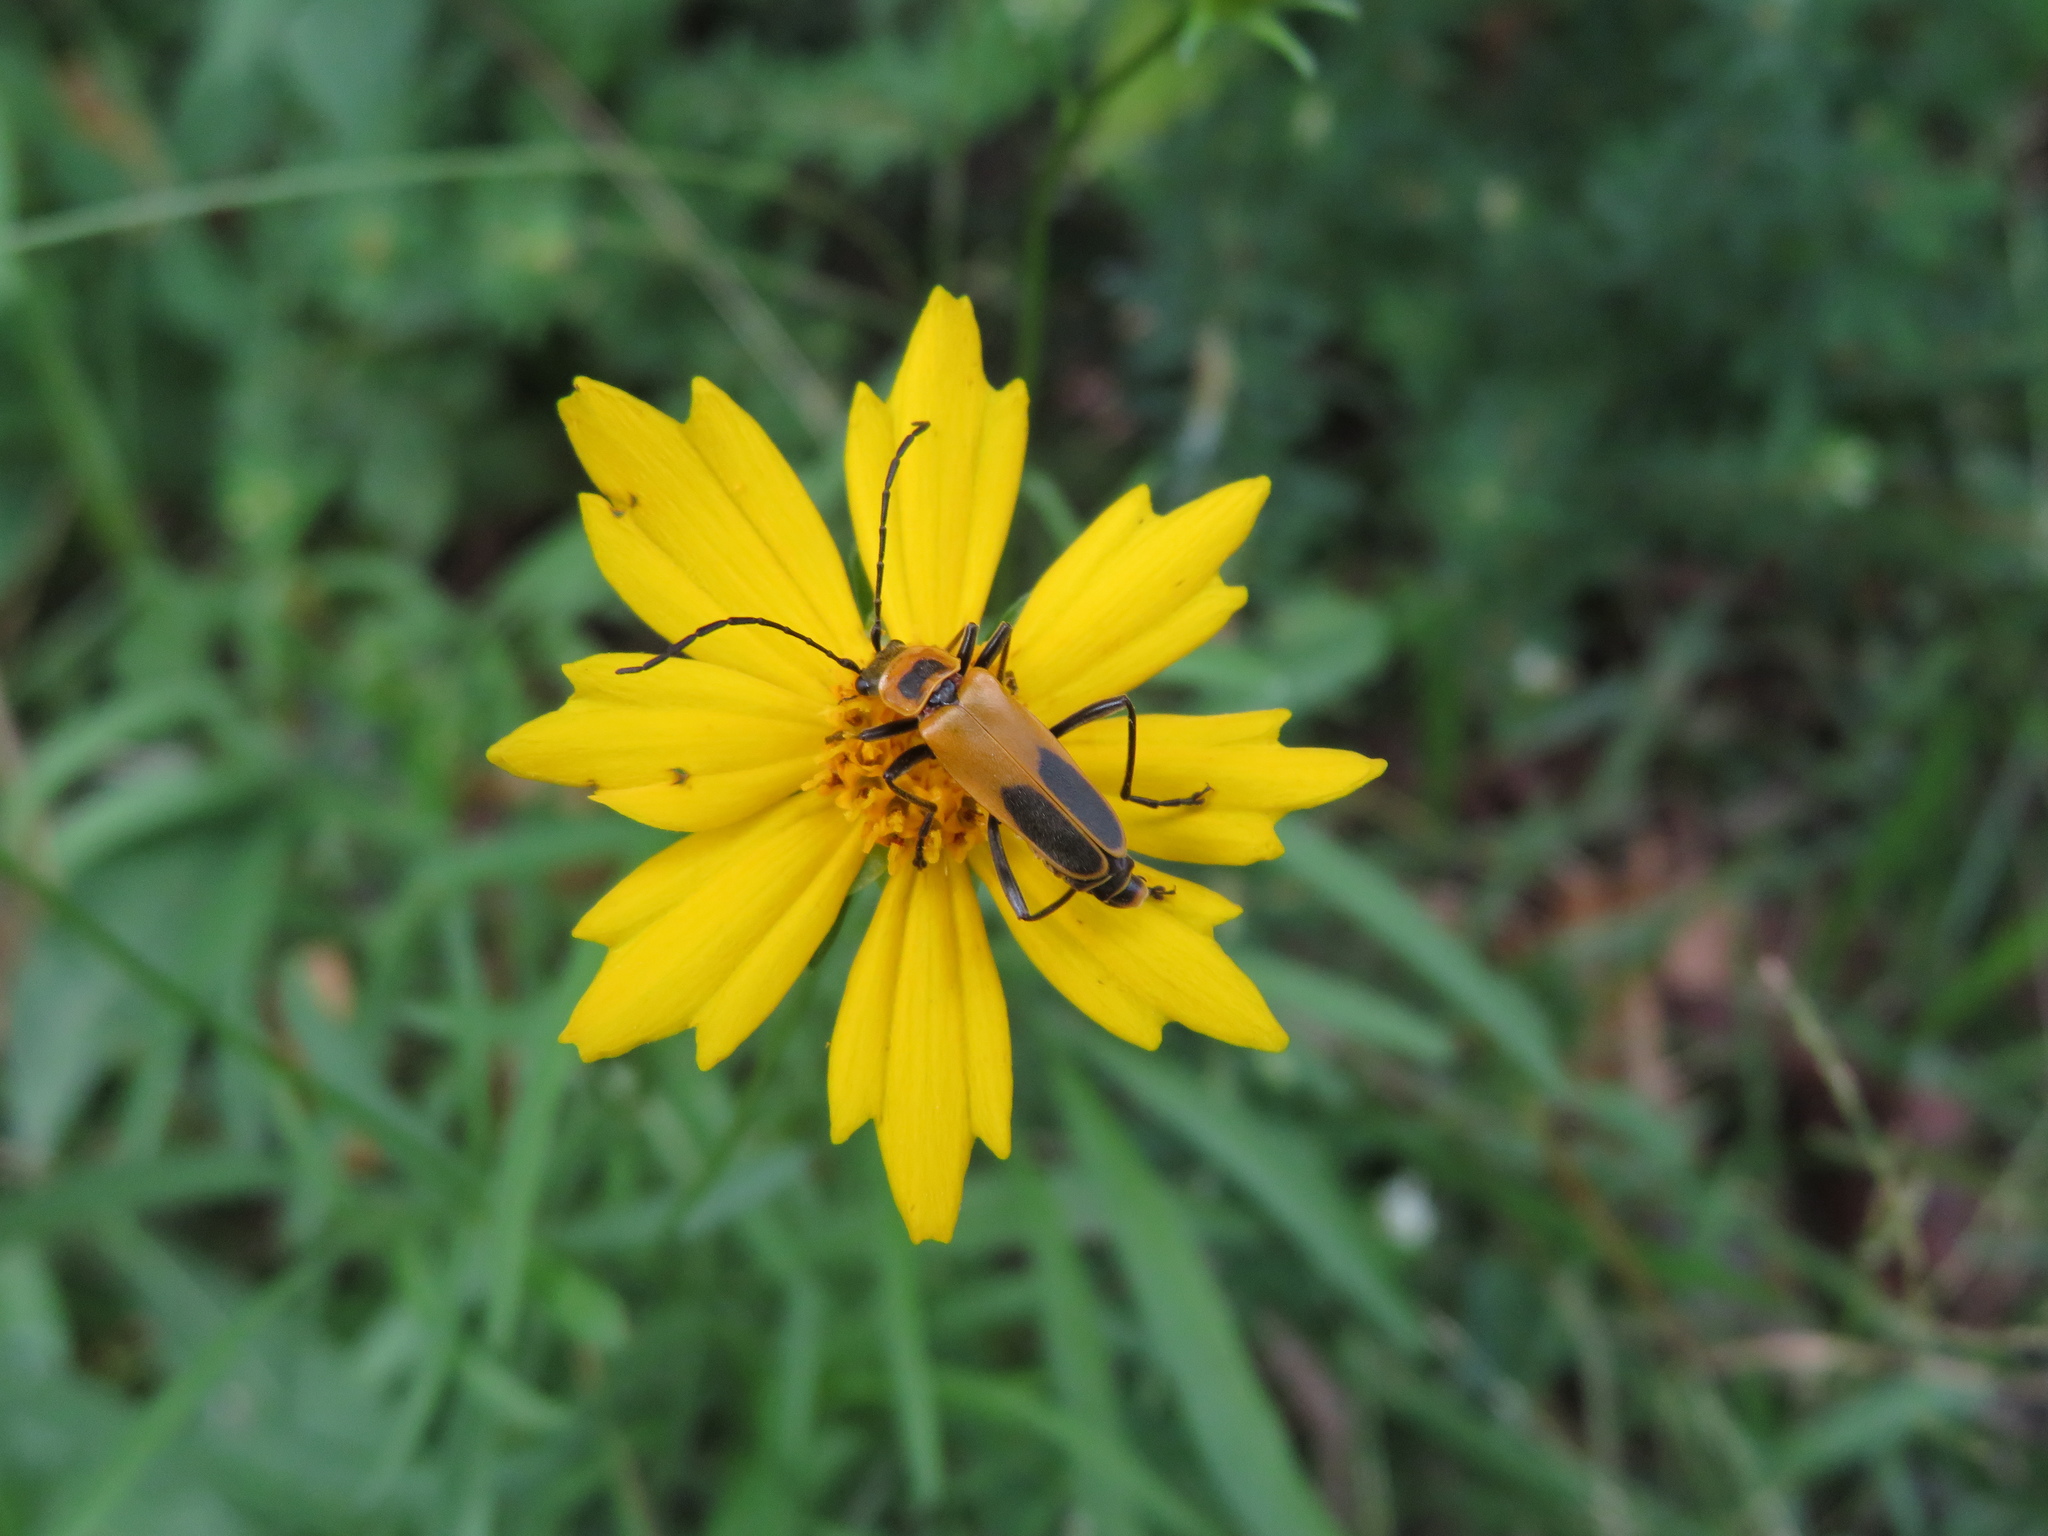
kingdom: Animalia
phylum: Arthropoda
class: Insecta
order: Coleoptera
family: Cantharidae
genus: Chauliognathus
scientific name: Chauliognathus pensylvanicus
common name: Goldenrod soldier beetle
